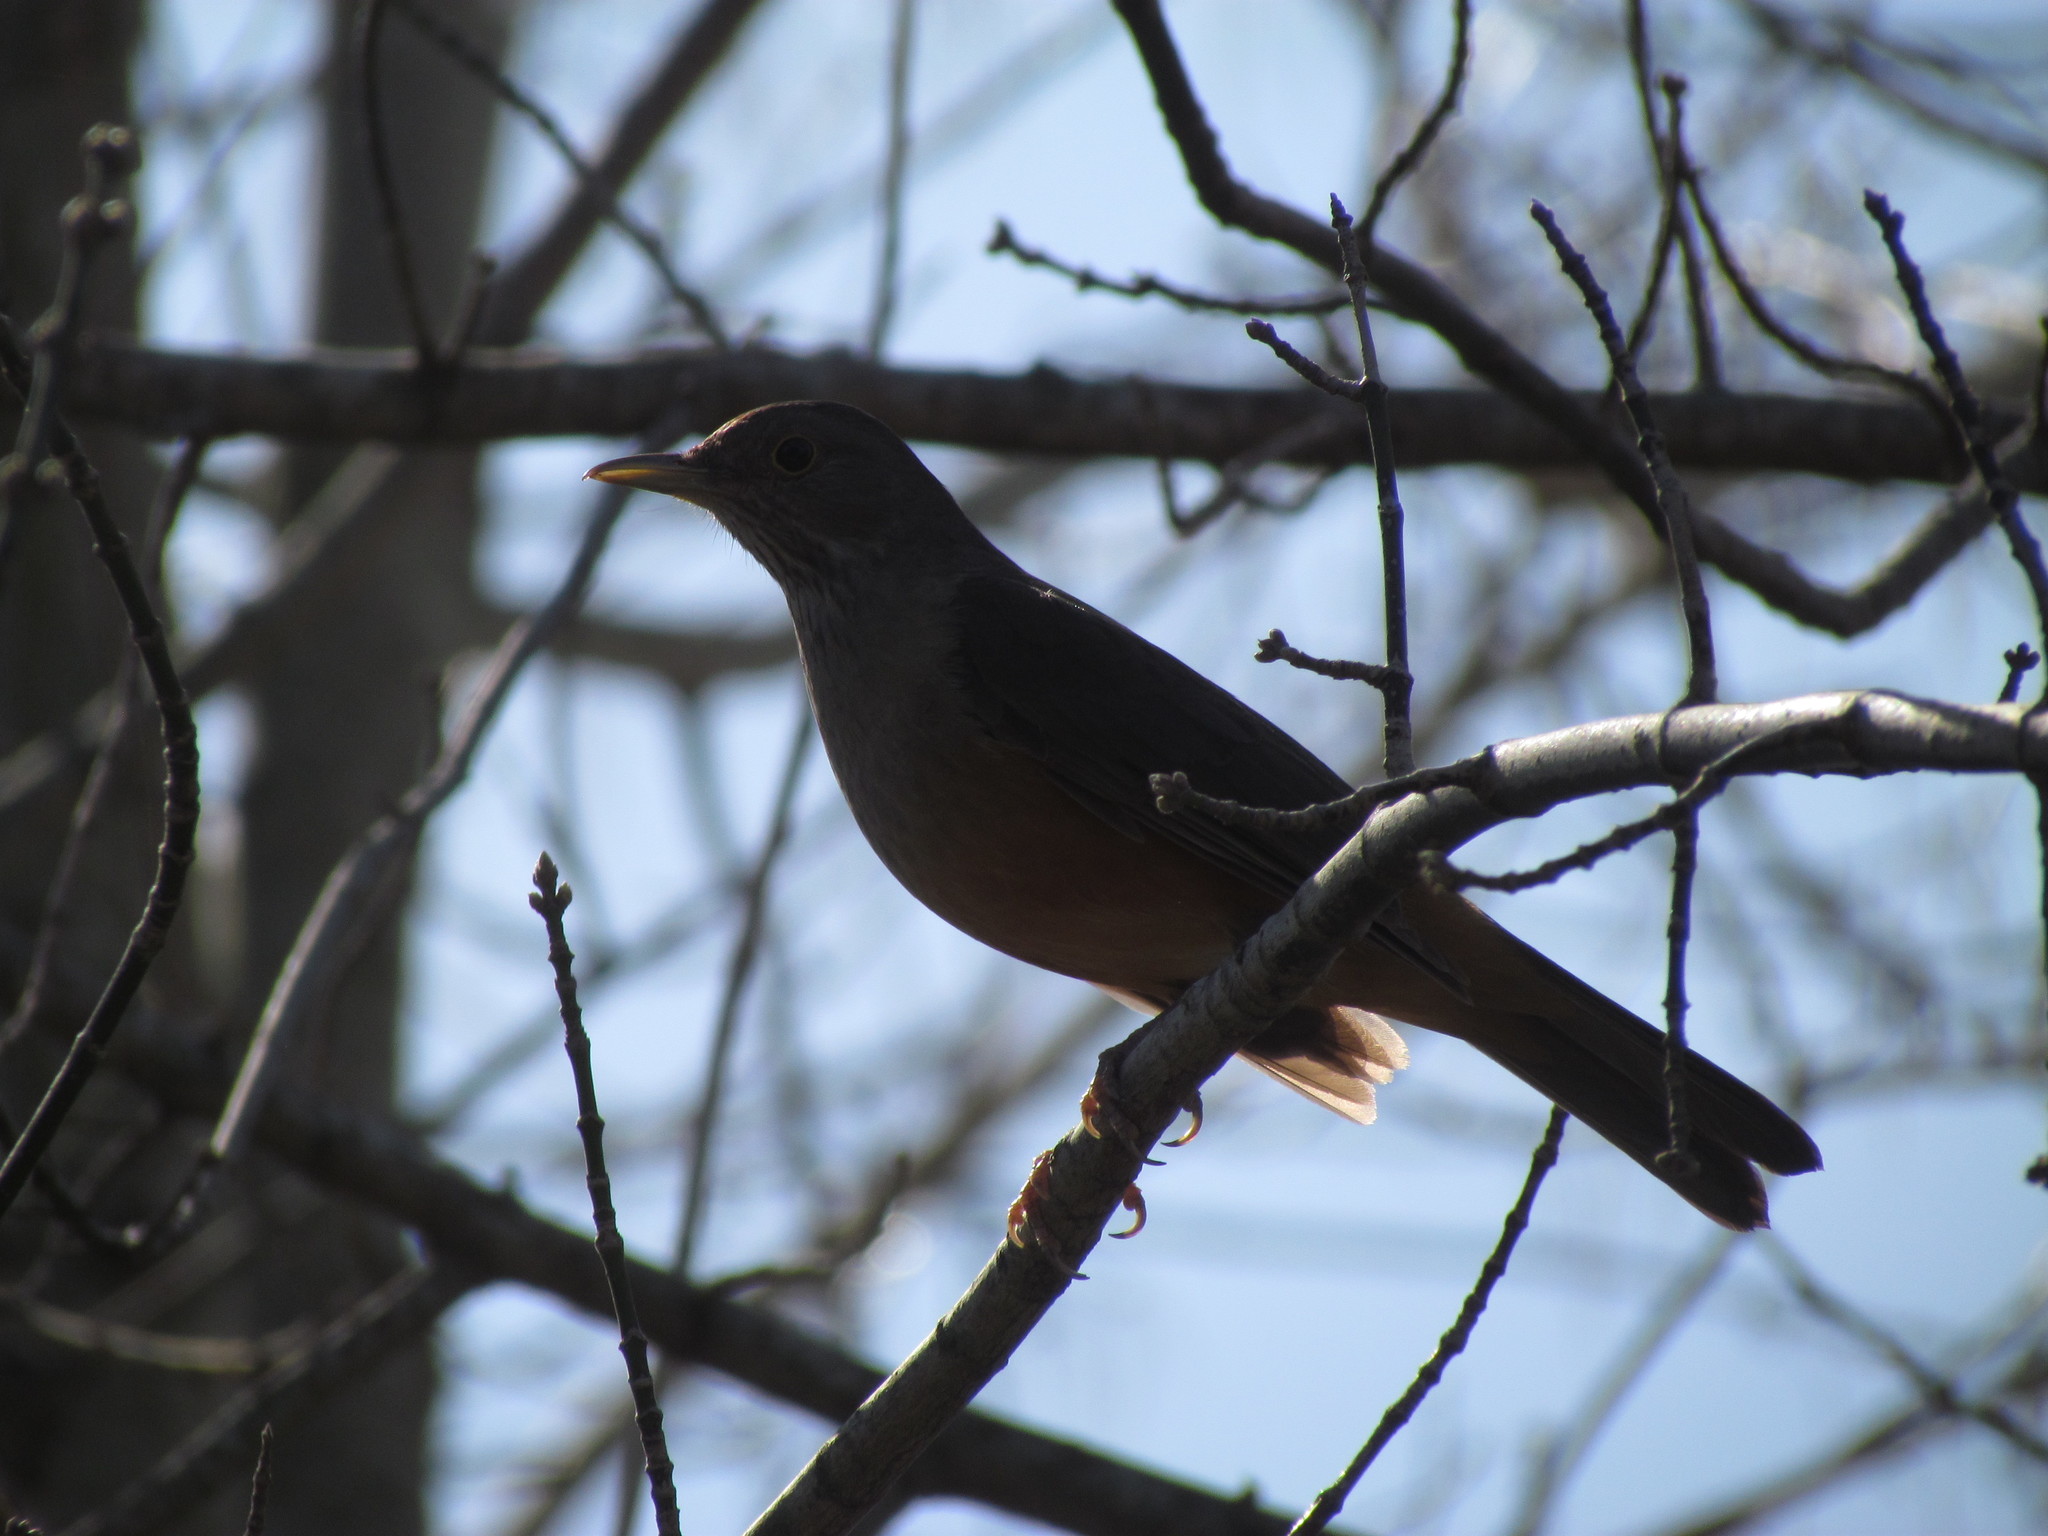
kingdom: Animalia
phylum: Chordata
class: Aves
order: Passeriformes
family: Turdidae
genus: Turdus
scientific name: Turdus rufiventris
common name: Rufous-bellied thrush
